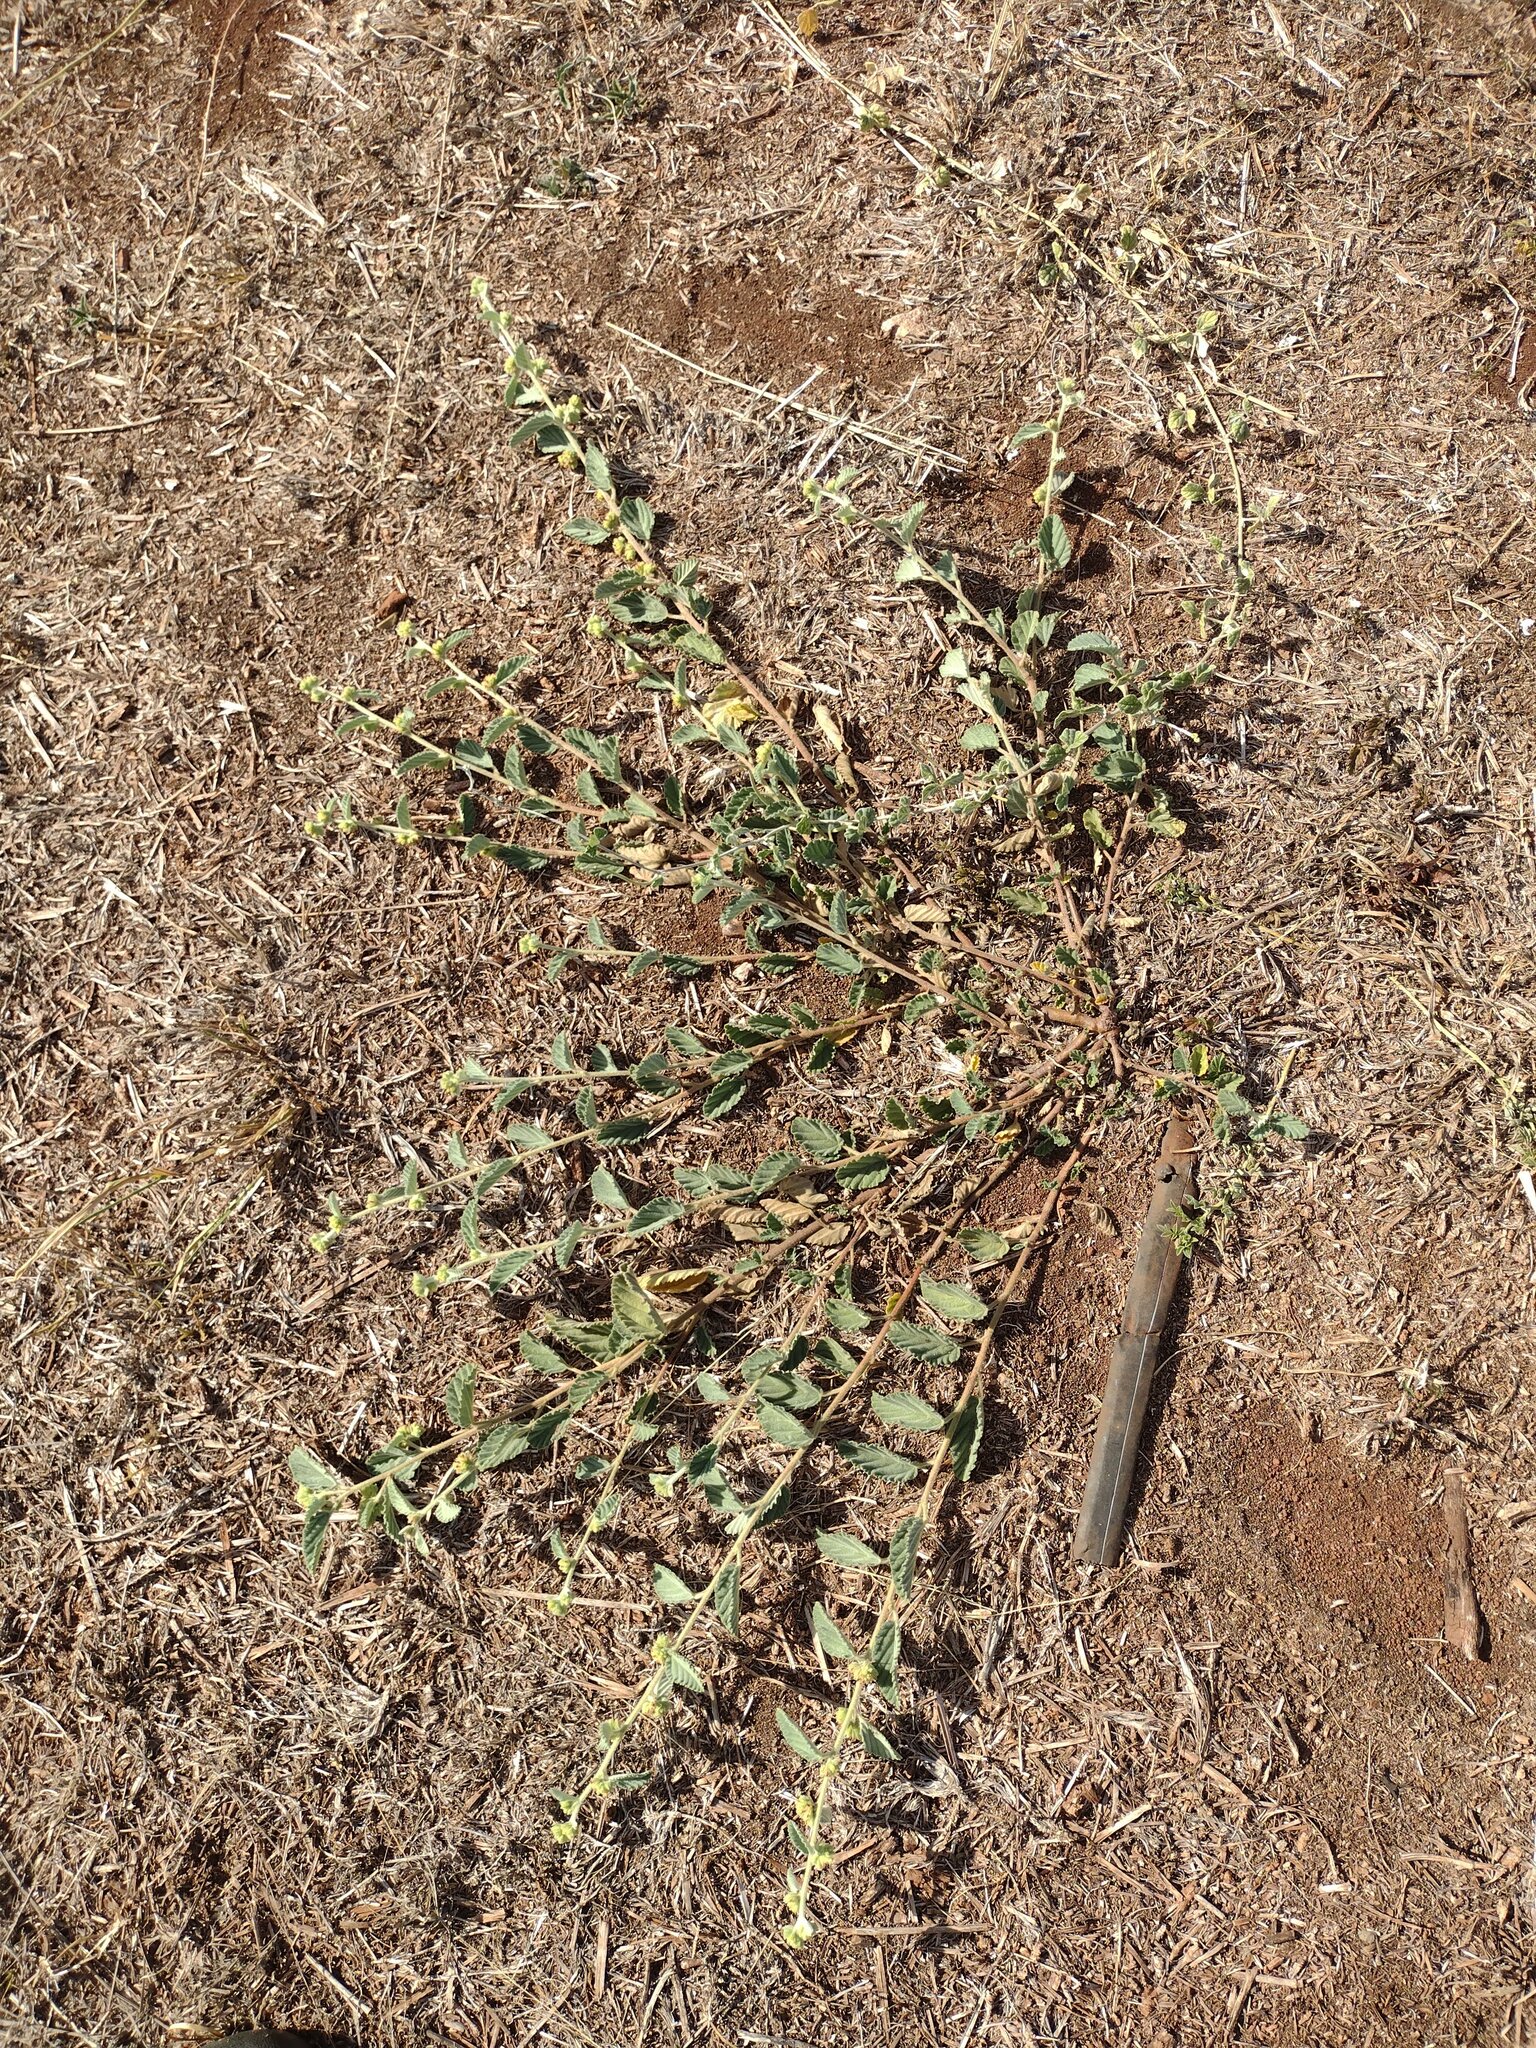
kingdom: Plantae
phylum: Tracheophyta
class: Magnoliopsida
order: Malvales
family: Malvaceae
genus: Waltheria
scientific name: Waltheria indica
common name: Leather-coat
